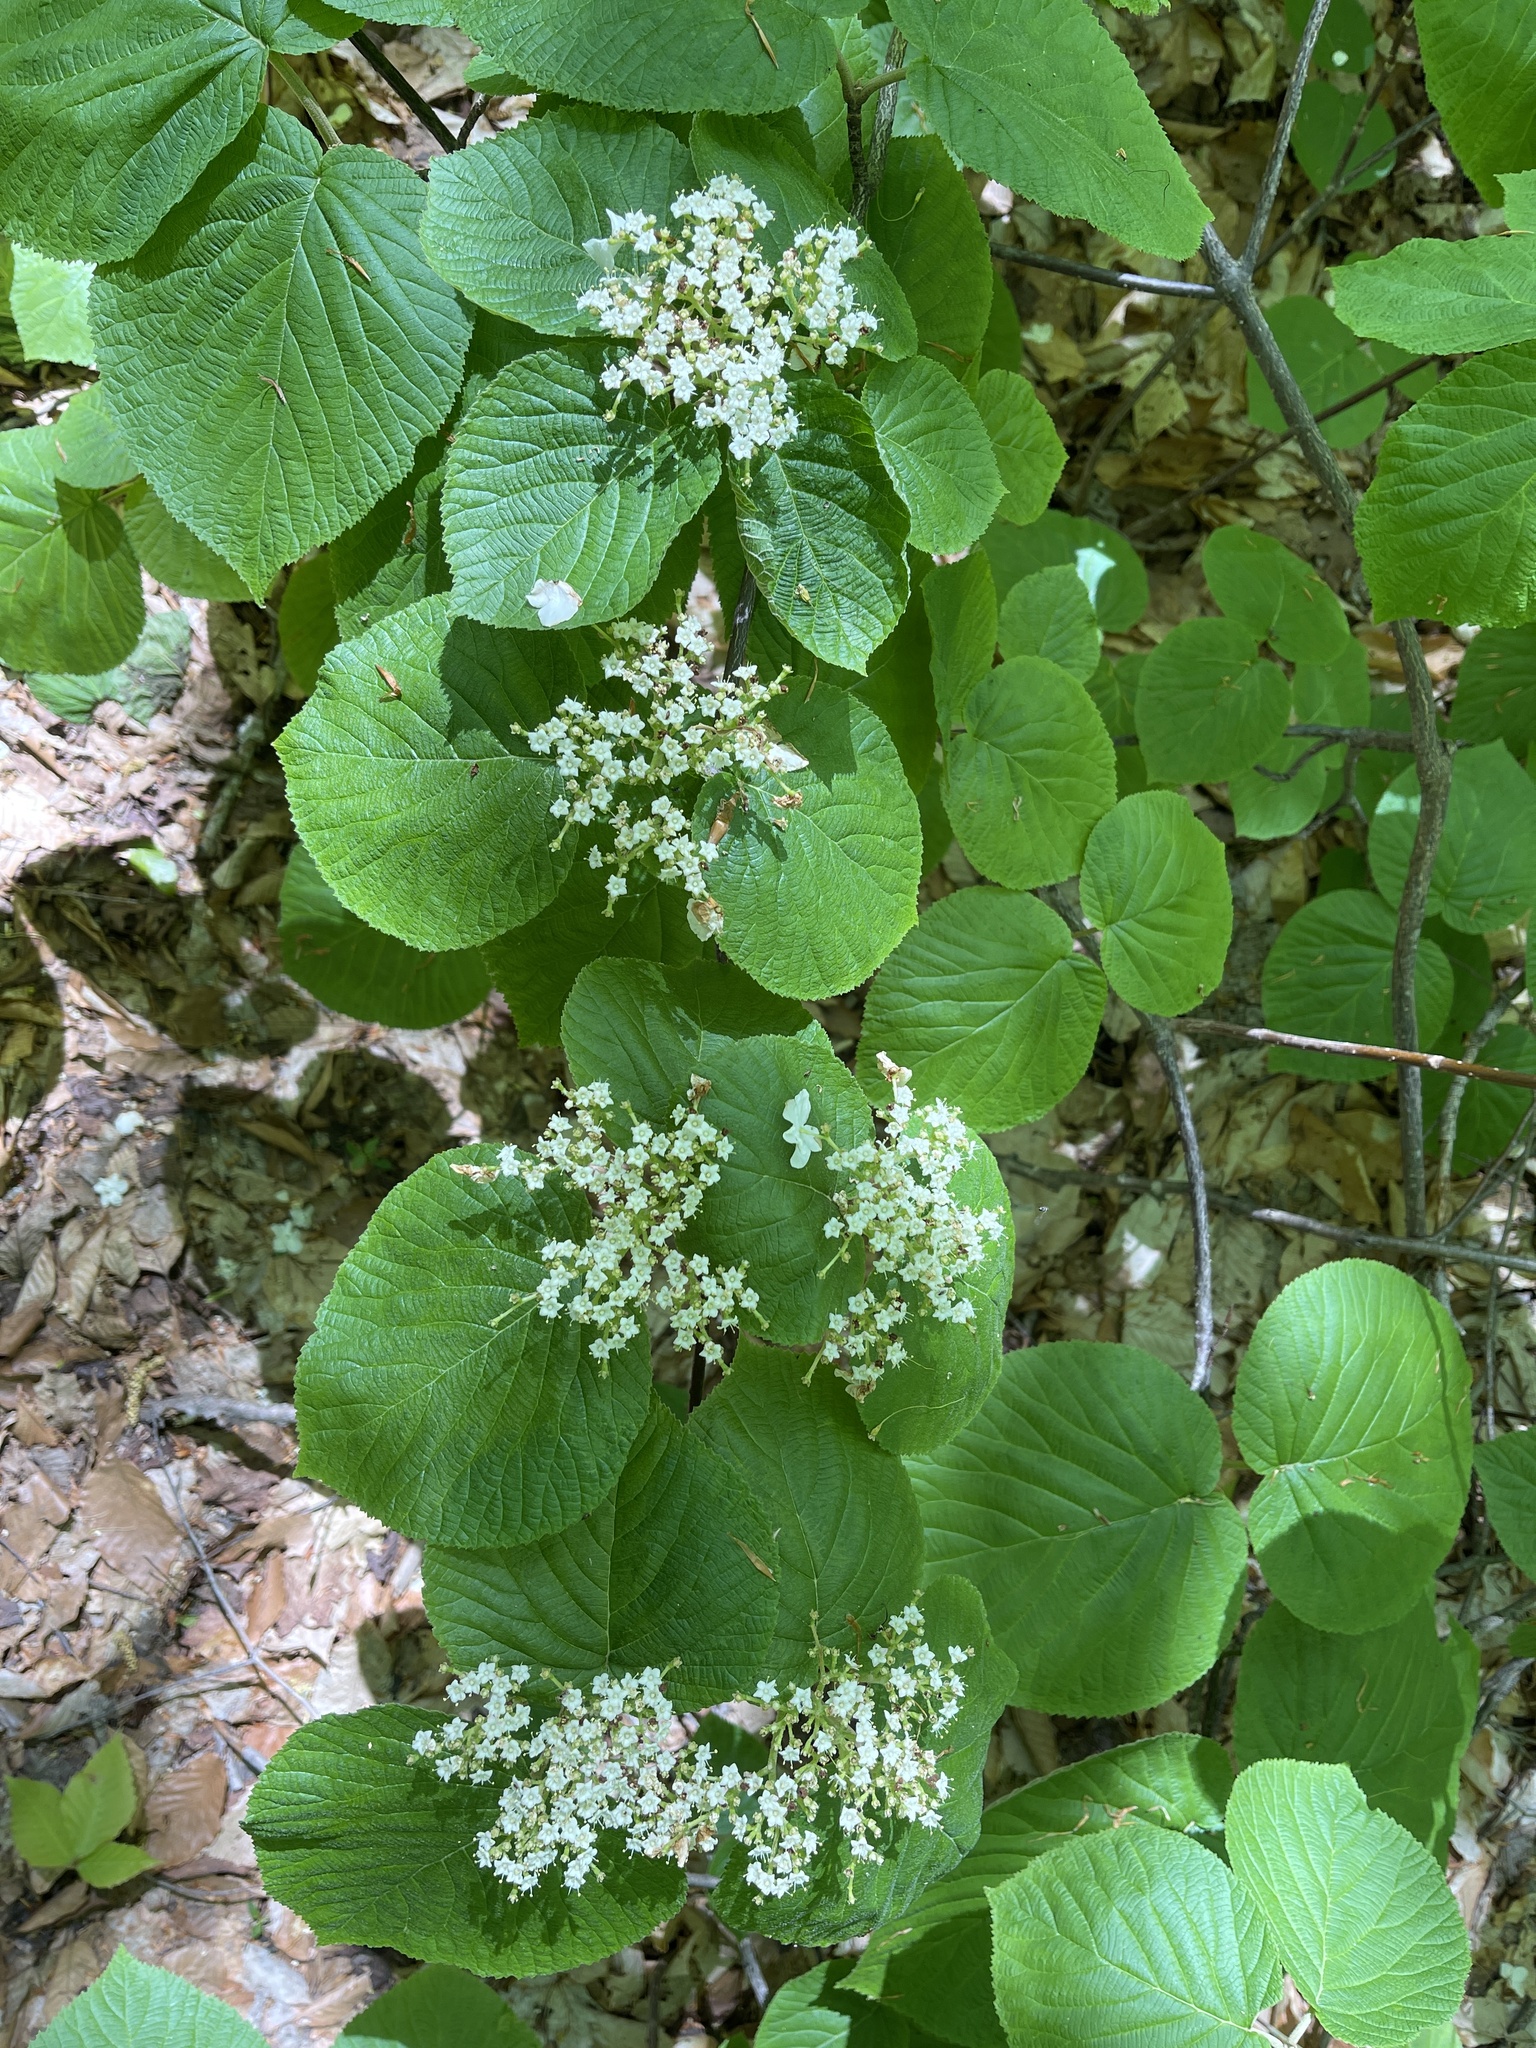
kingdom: Plantae
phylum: Tracheophyta
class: Magnoliopsida
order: Dipsacales
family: Viburnaceae
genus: Viburnum
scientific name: Viburnum lantanoides
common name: Hobblebush
